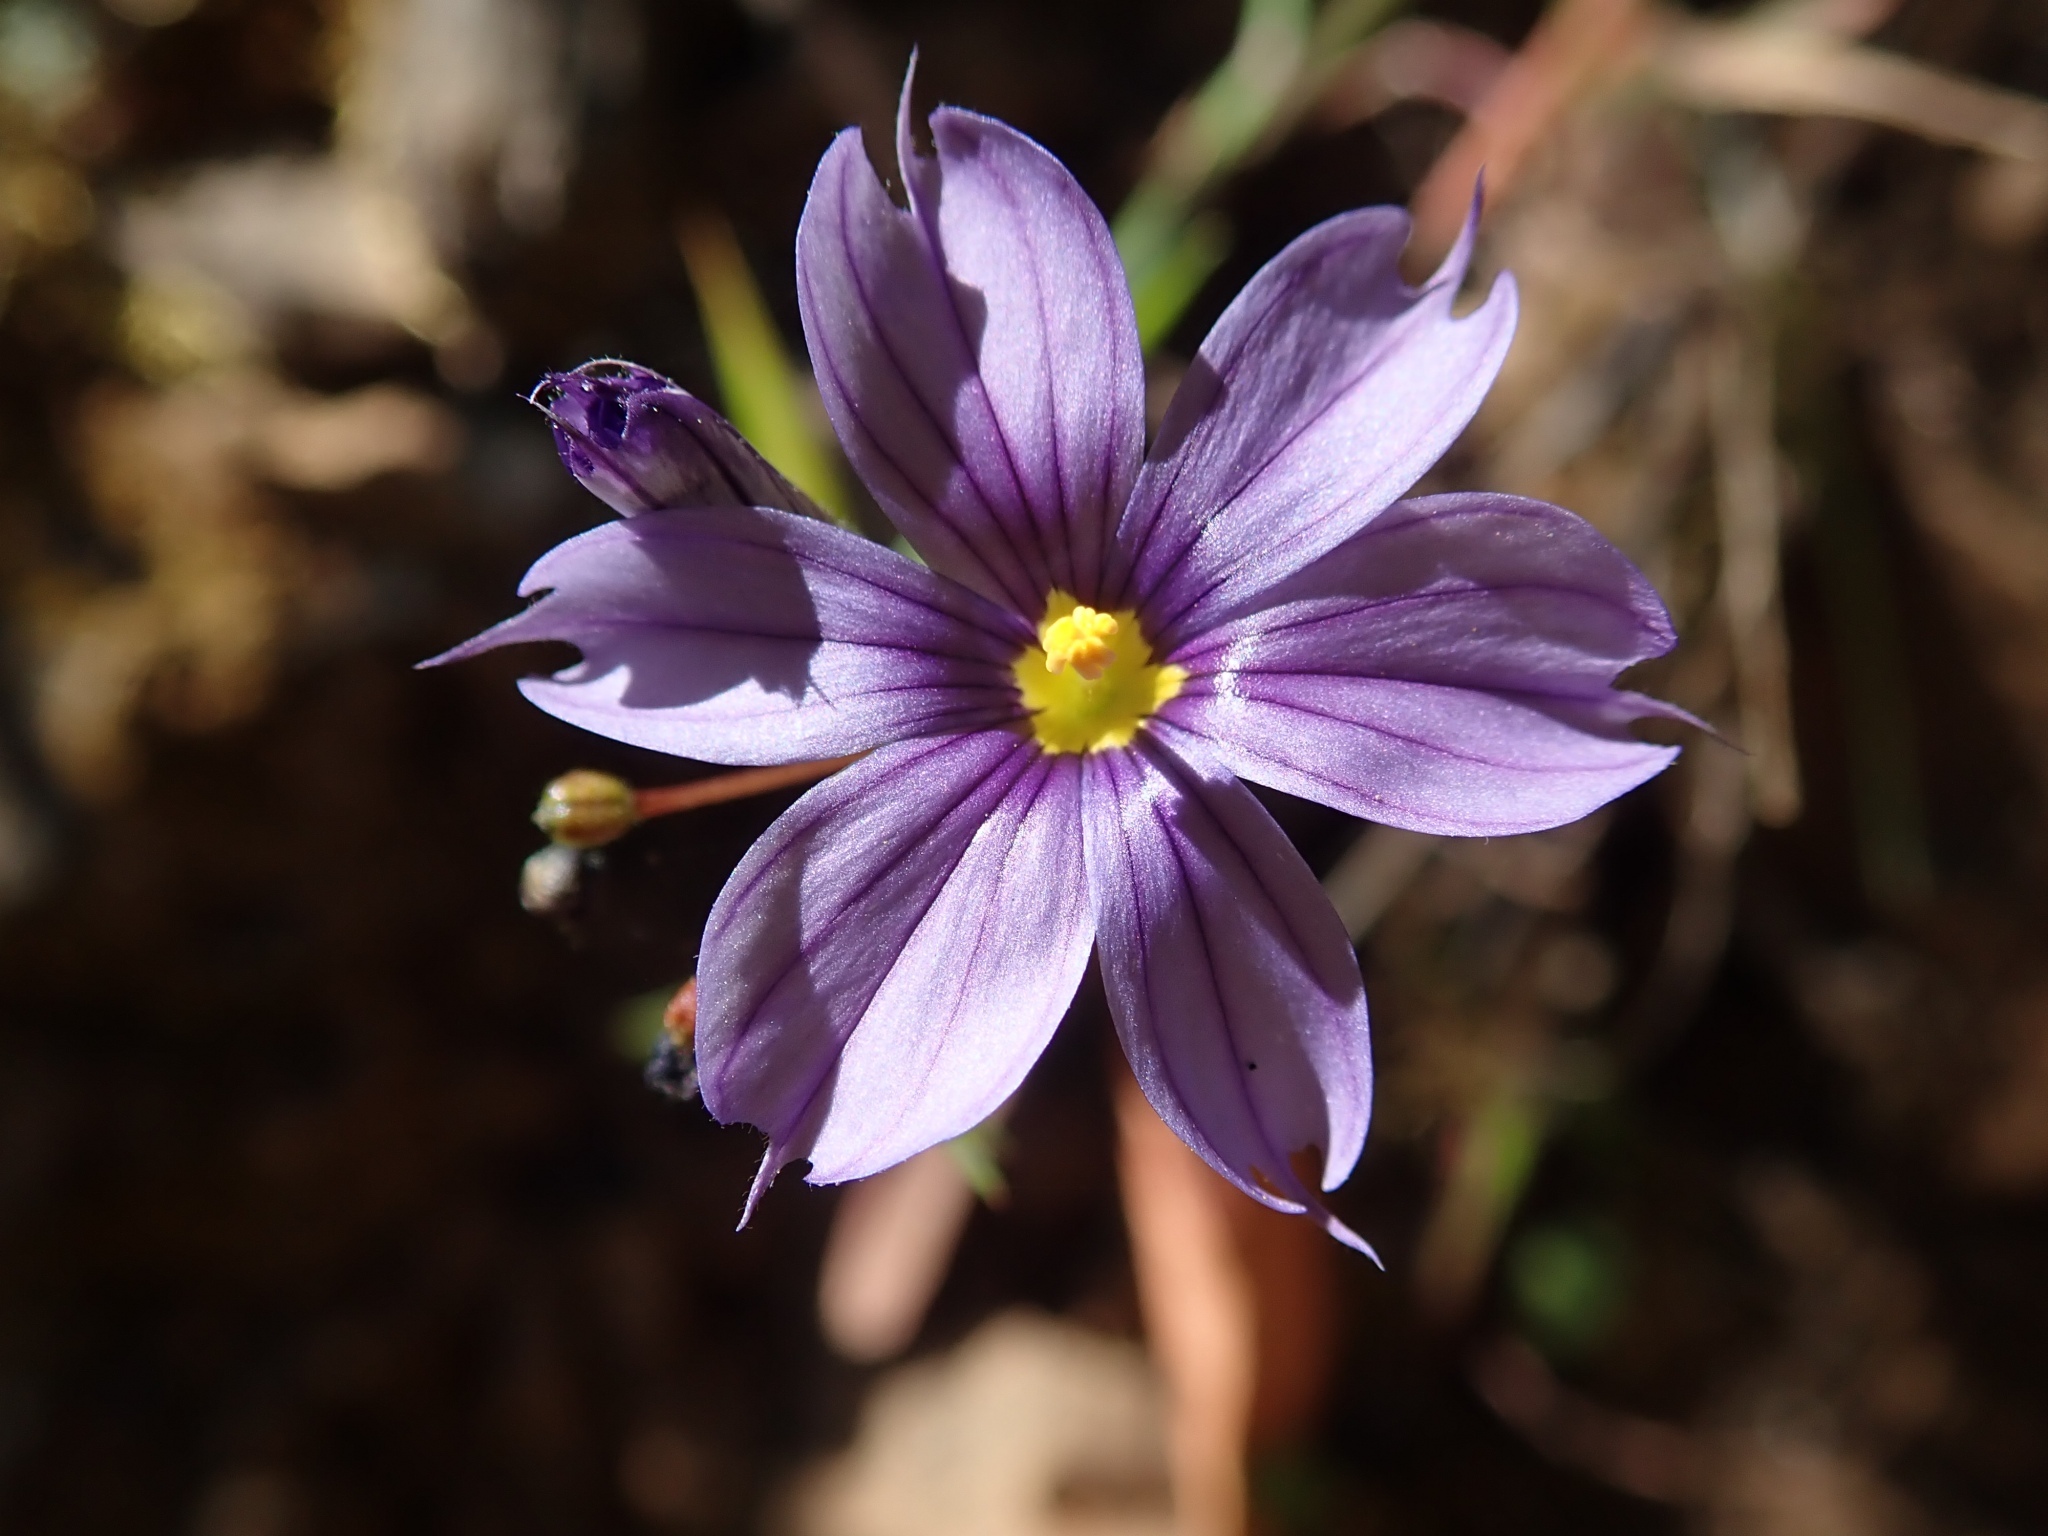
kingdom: Plantae
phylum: Tracheophyta
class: Liliopsida
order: Asparagales
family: Iridaceae
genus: Sisyrinchium
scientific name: Sisyrinchium bellum
